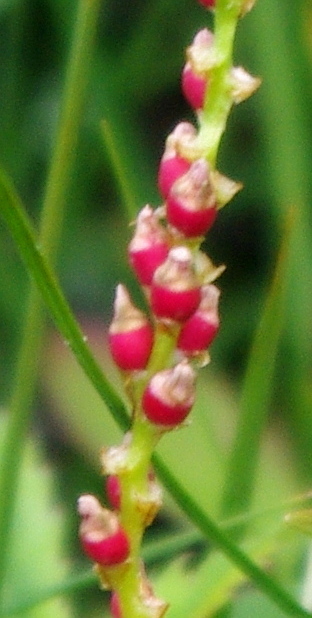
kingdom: Plantae
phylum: Tracheophyta
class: Magnoliopsida
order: Caryophyllales
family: Polygonaceae
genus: Bistorta
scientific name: Bistorta vivipara
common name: Alpine bistort
